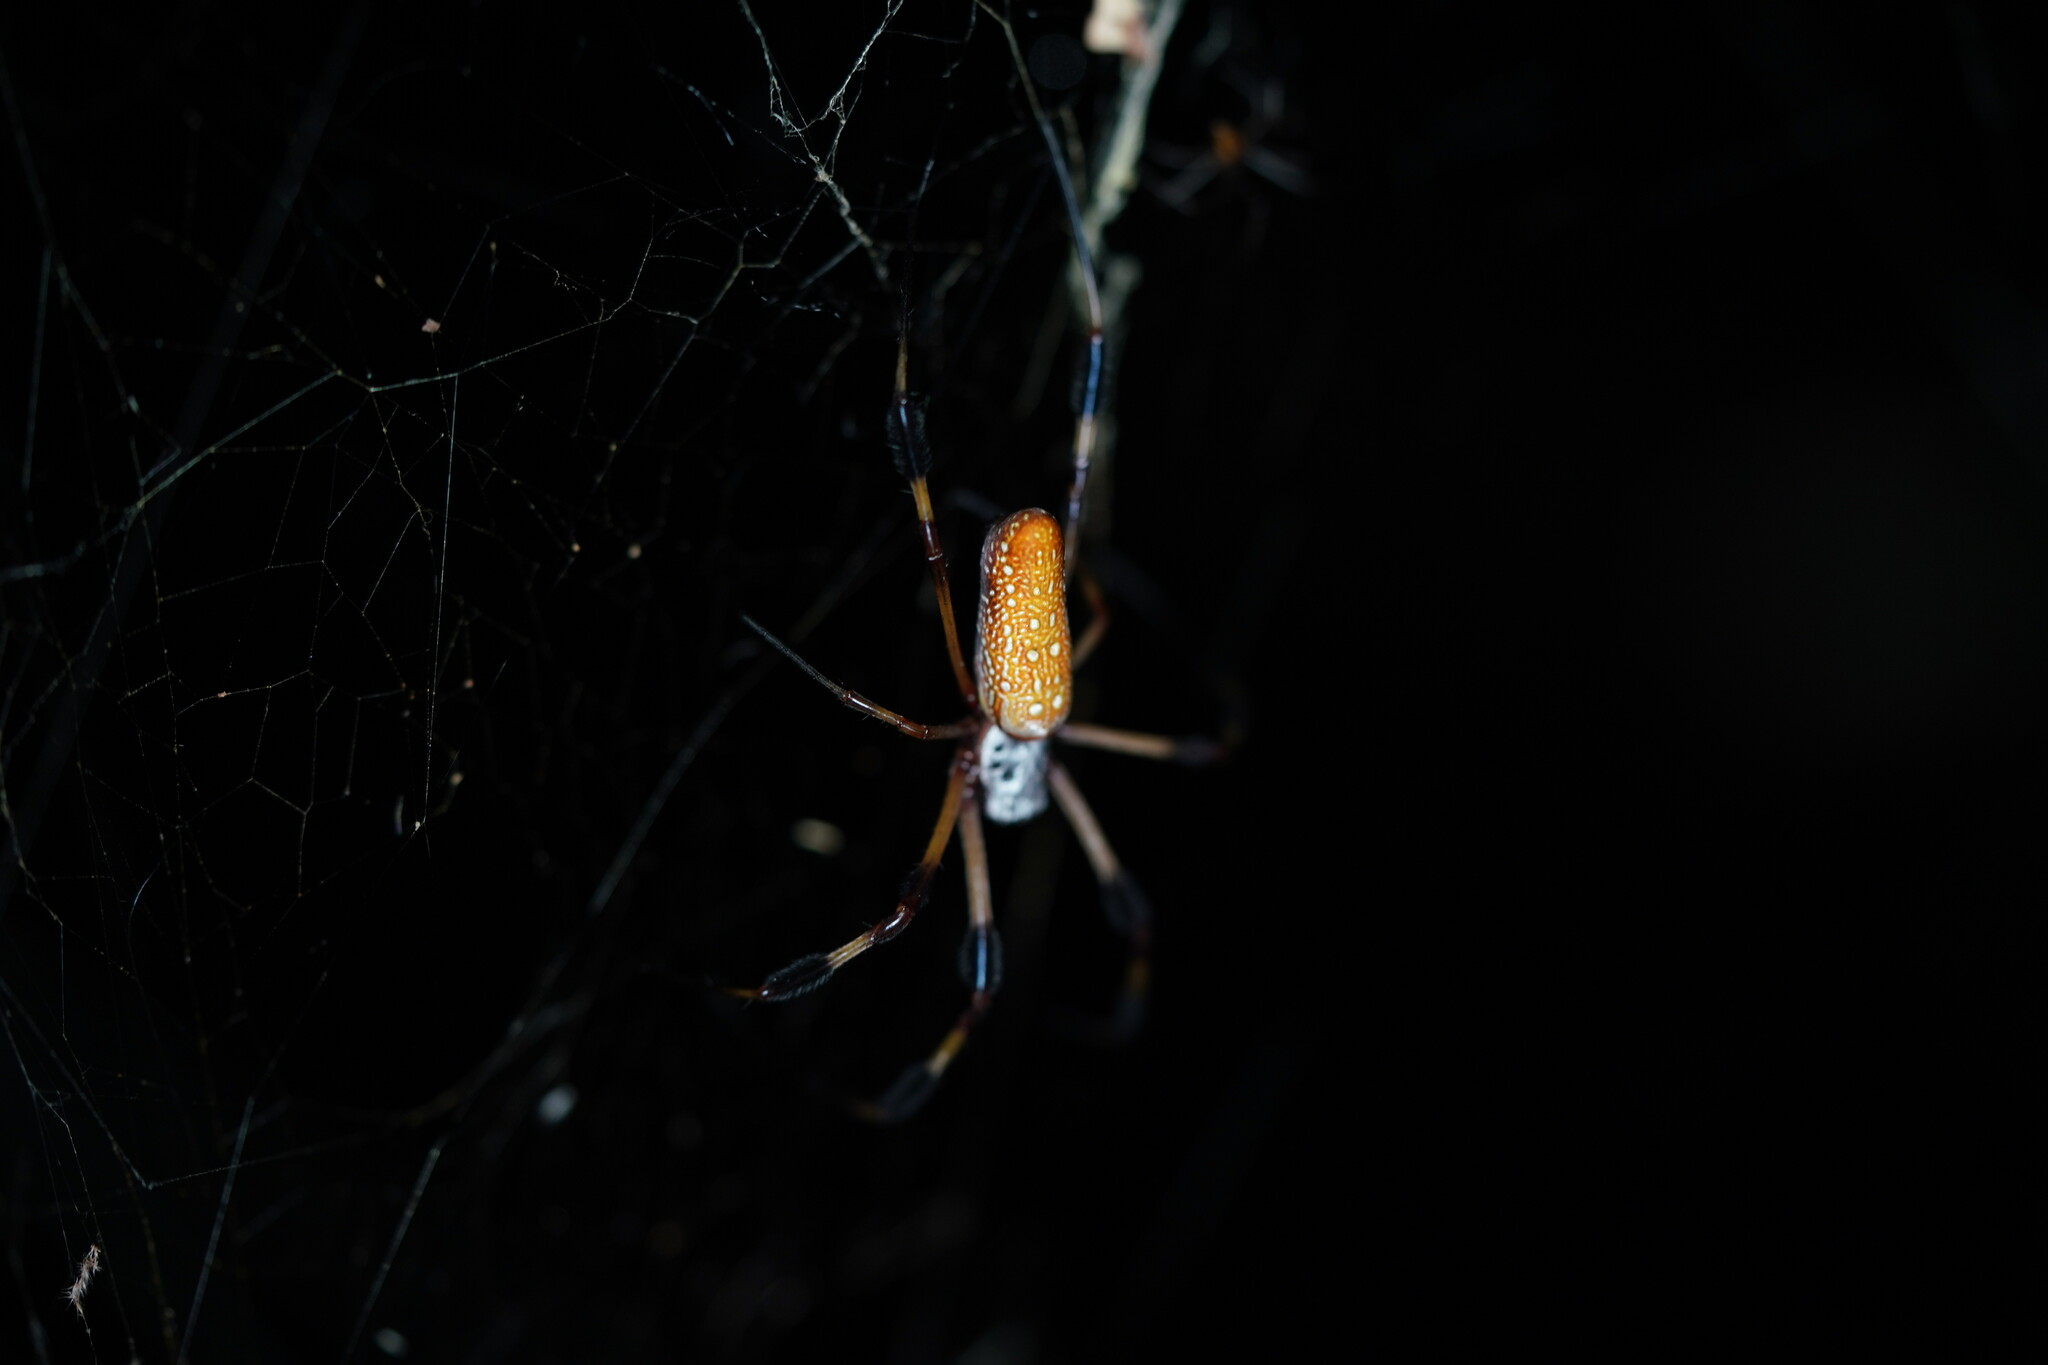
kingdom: Animalia
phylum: Arthropoda
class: Arachnida
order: Araneae
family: Araneidae
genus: Trichonephila
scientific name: Trichonephila clavipes
